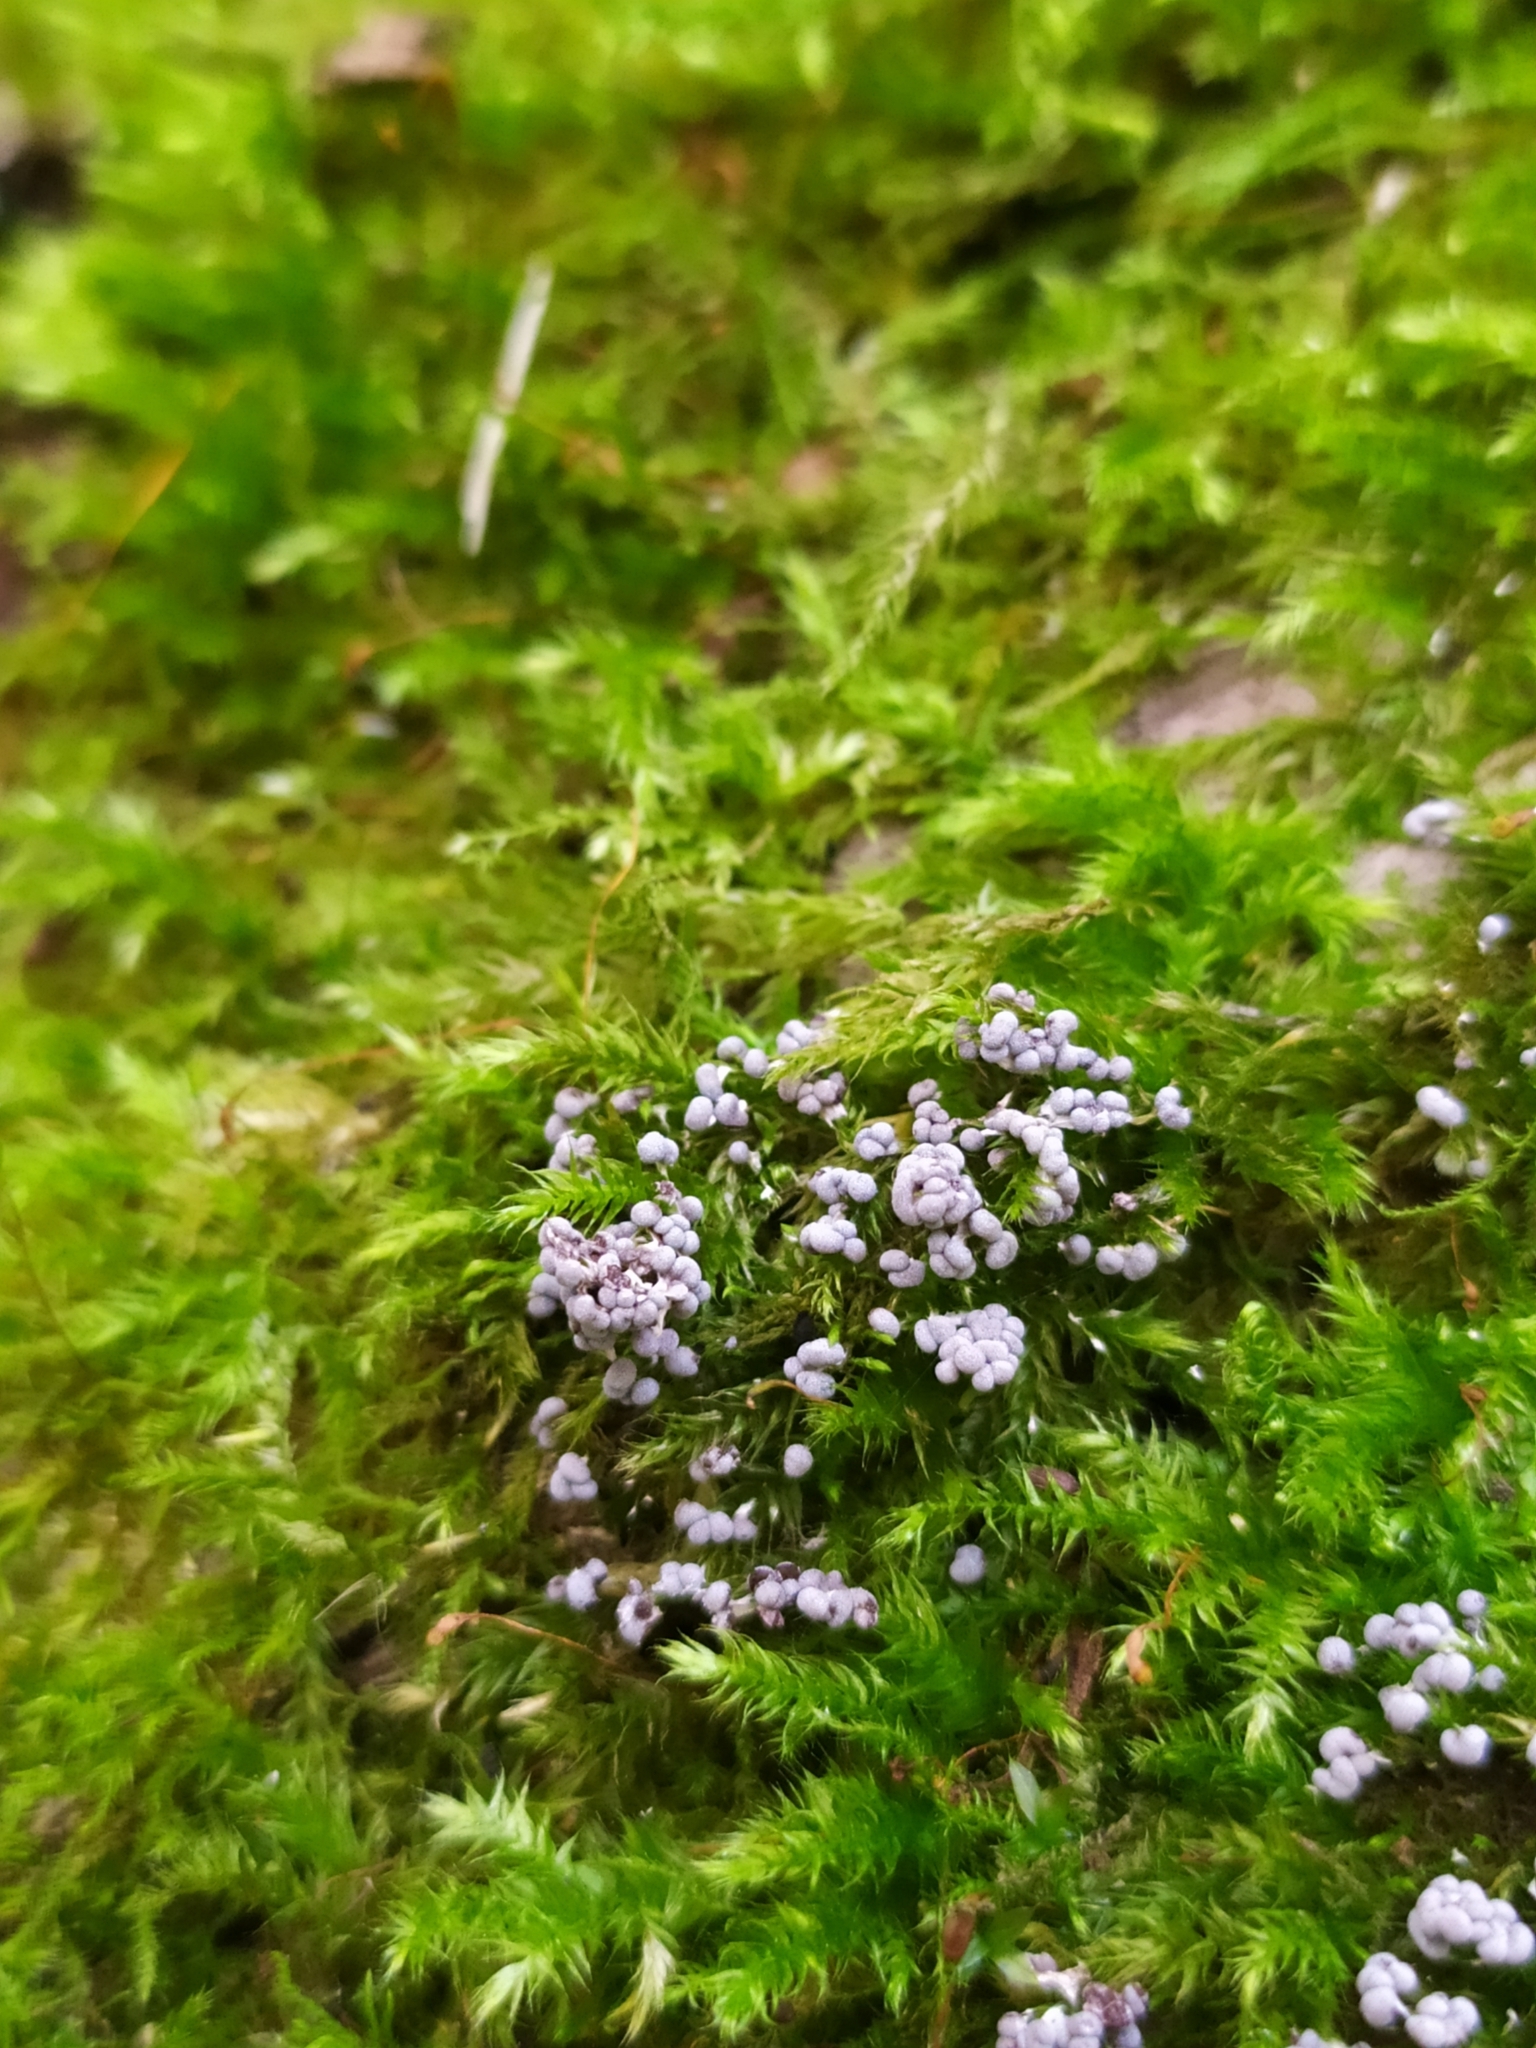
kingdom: Protozoa
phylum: Mycetozoa
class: Myxomycetes
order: Physarales
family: Physaraceae
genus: Physarum
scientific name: Physarum leucophaeum
